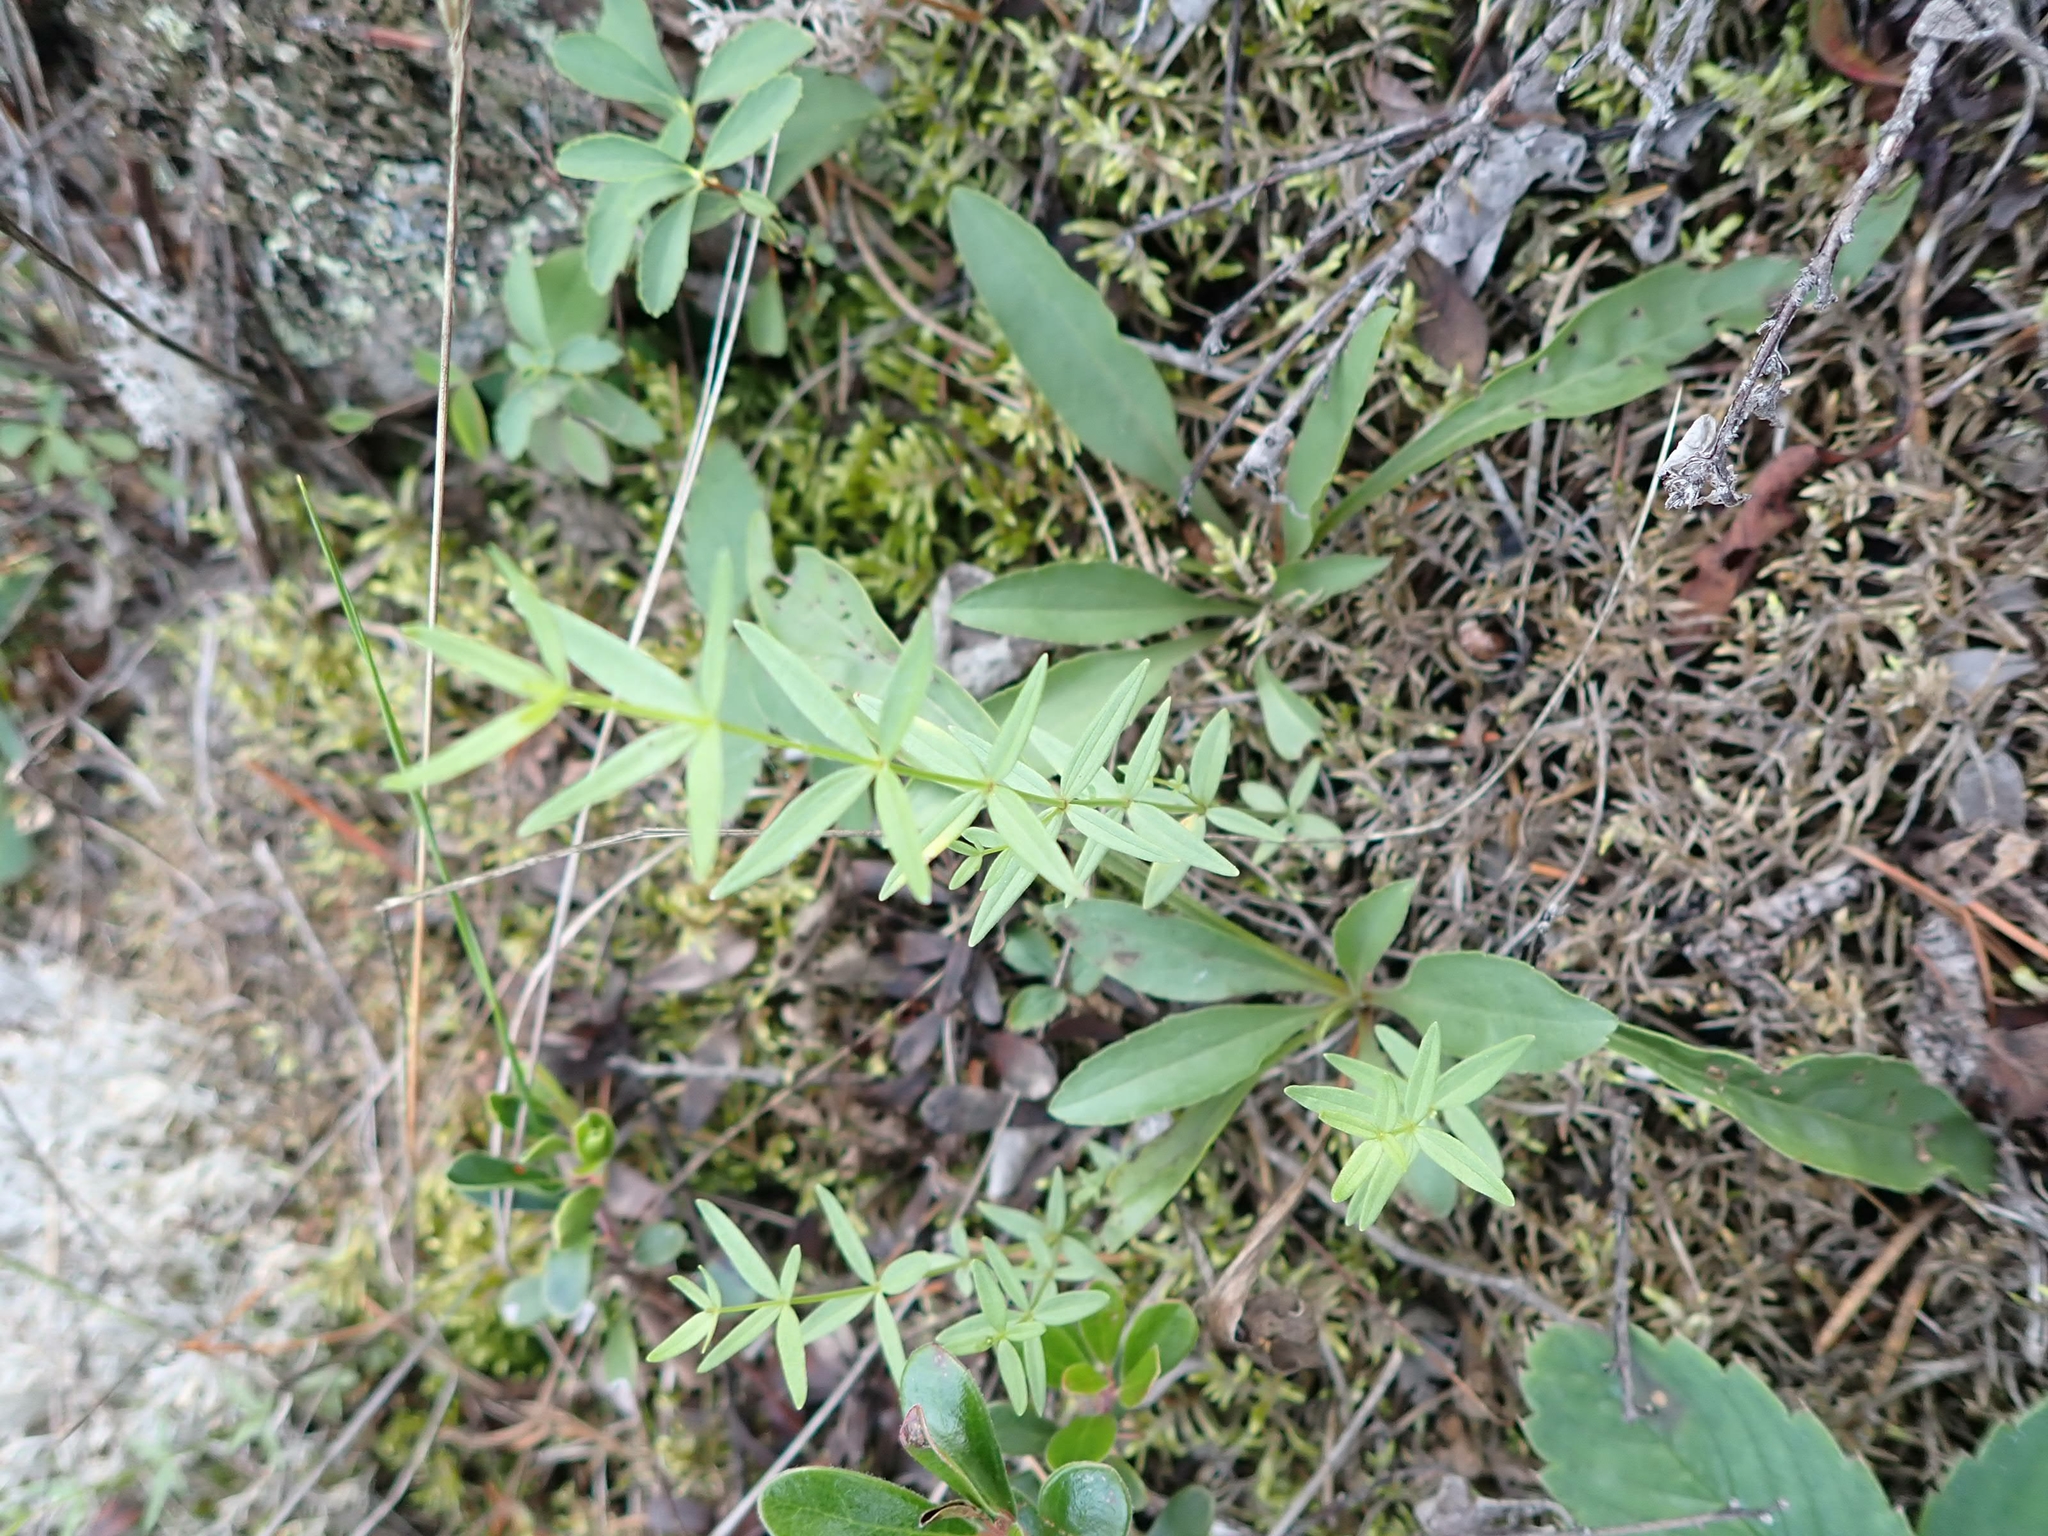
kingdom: Plantae
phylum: Tracheophyta
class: Magnoliopsida
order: Gentianales
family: Rubiaceae
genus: Galium
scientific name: Galium boreale
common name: Northern bedstraw
